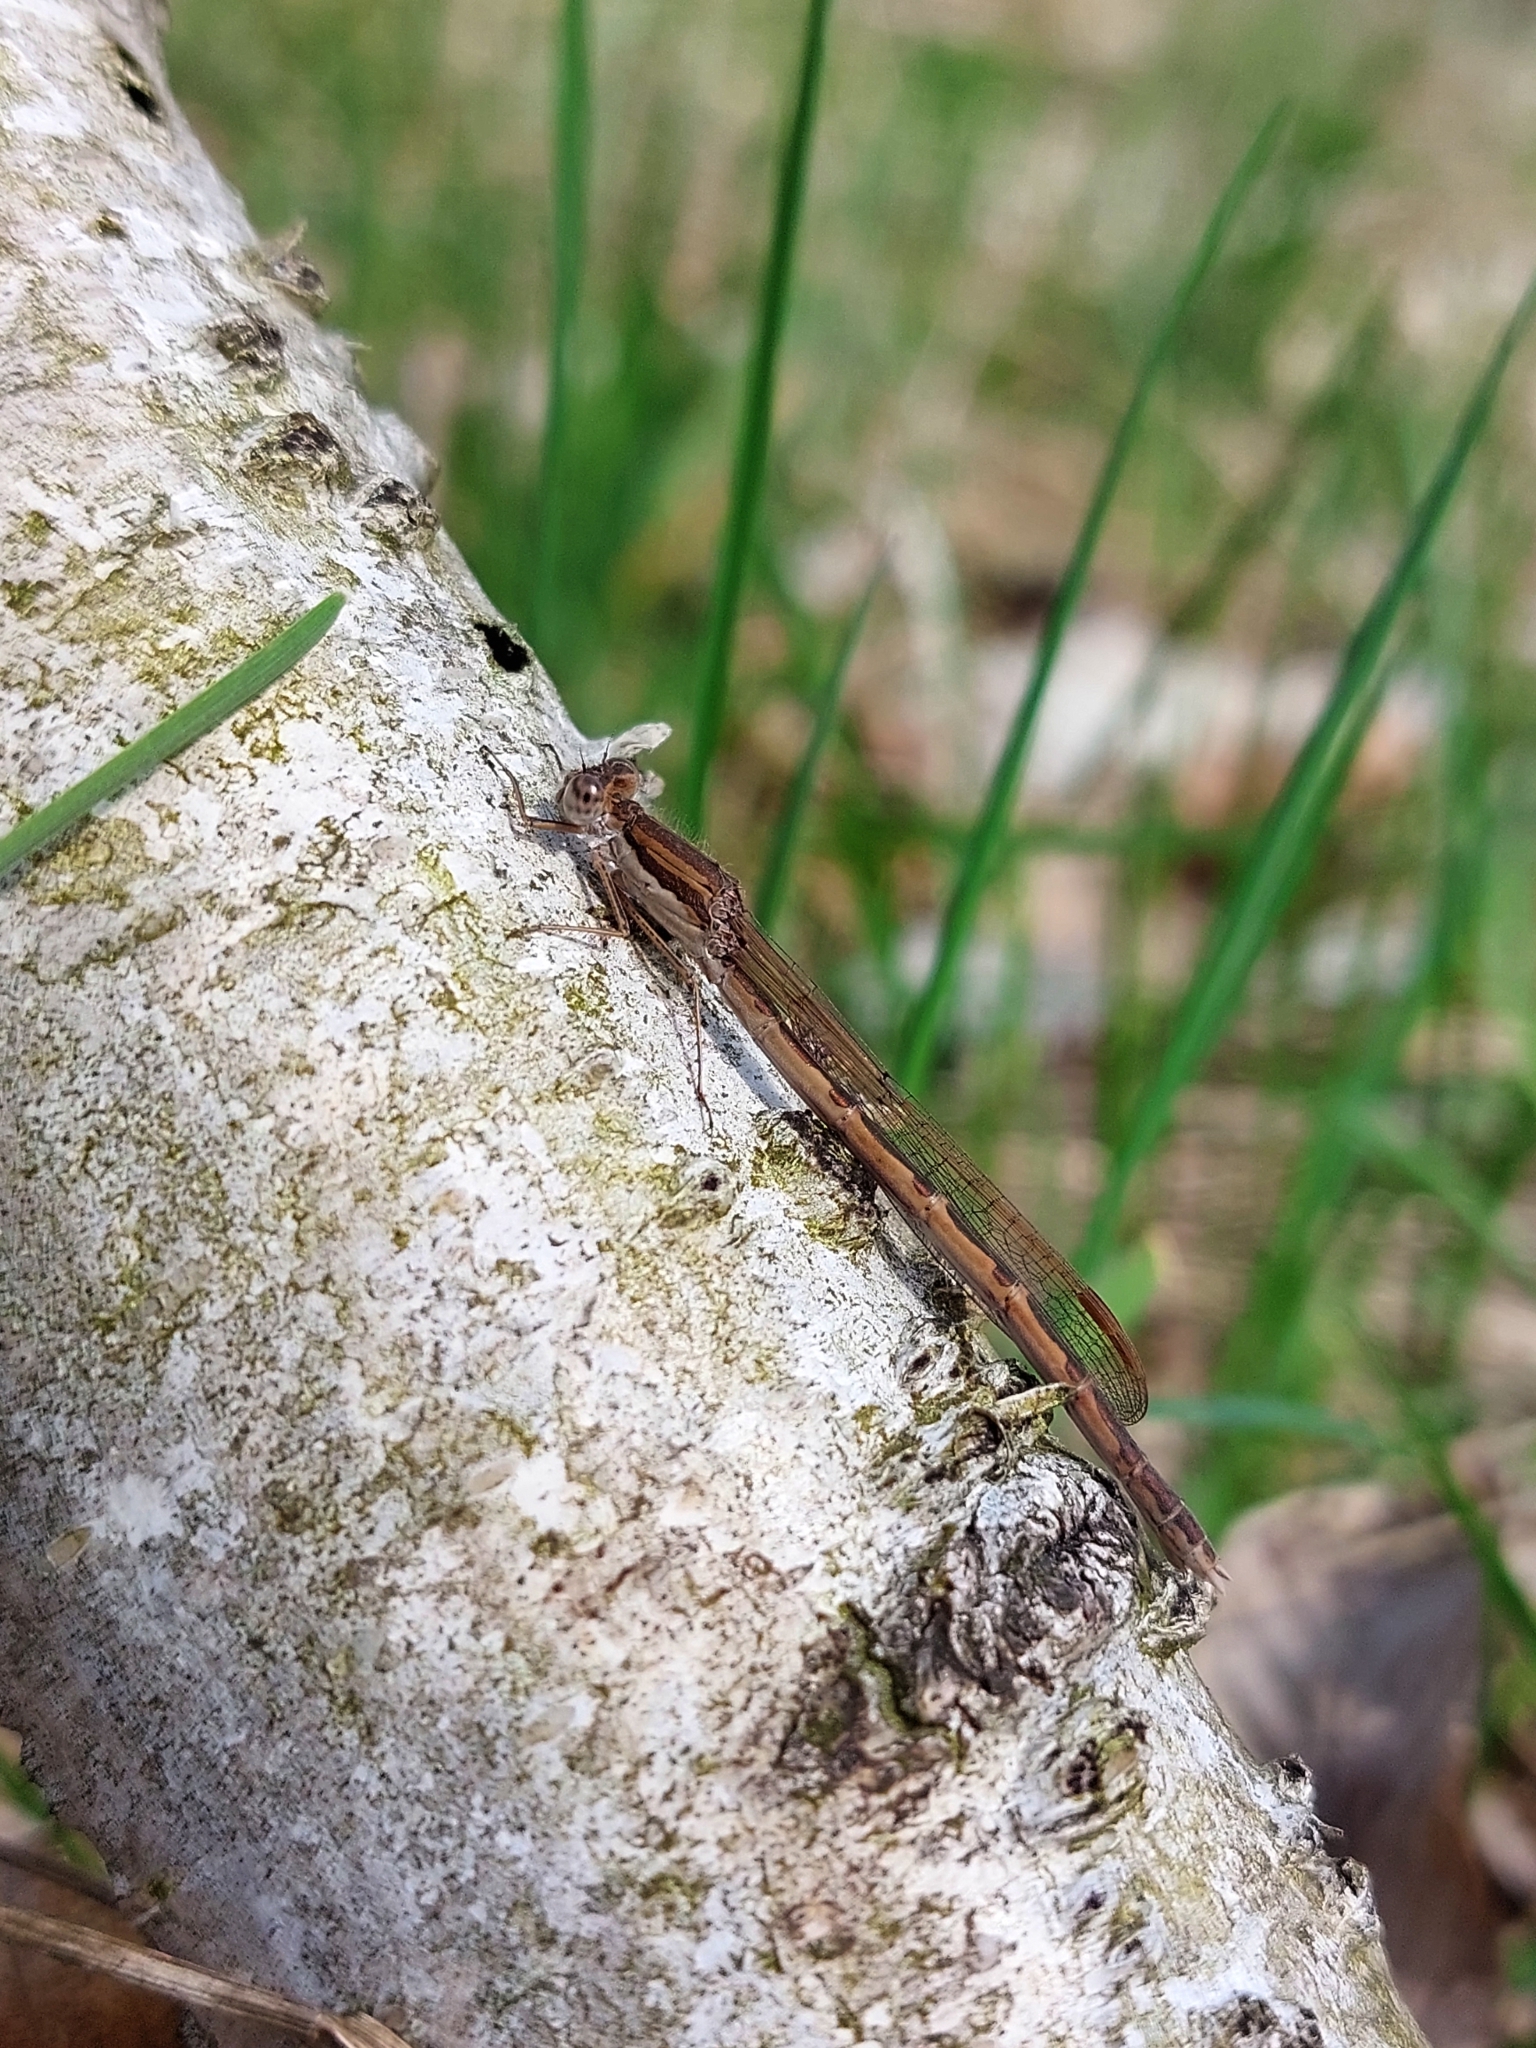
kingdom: Animalia
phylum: Arthropoda
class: Insecta
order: Odonata
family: Lestidae
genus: Sympecma
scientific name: Sympecma fusca
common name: Common winter damsel
